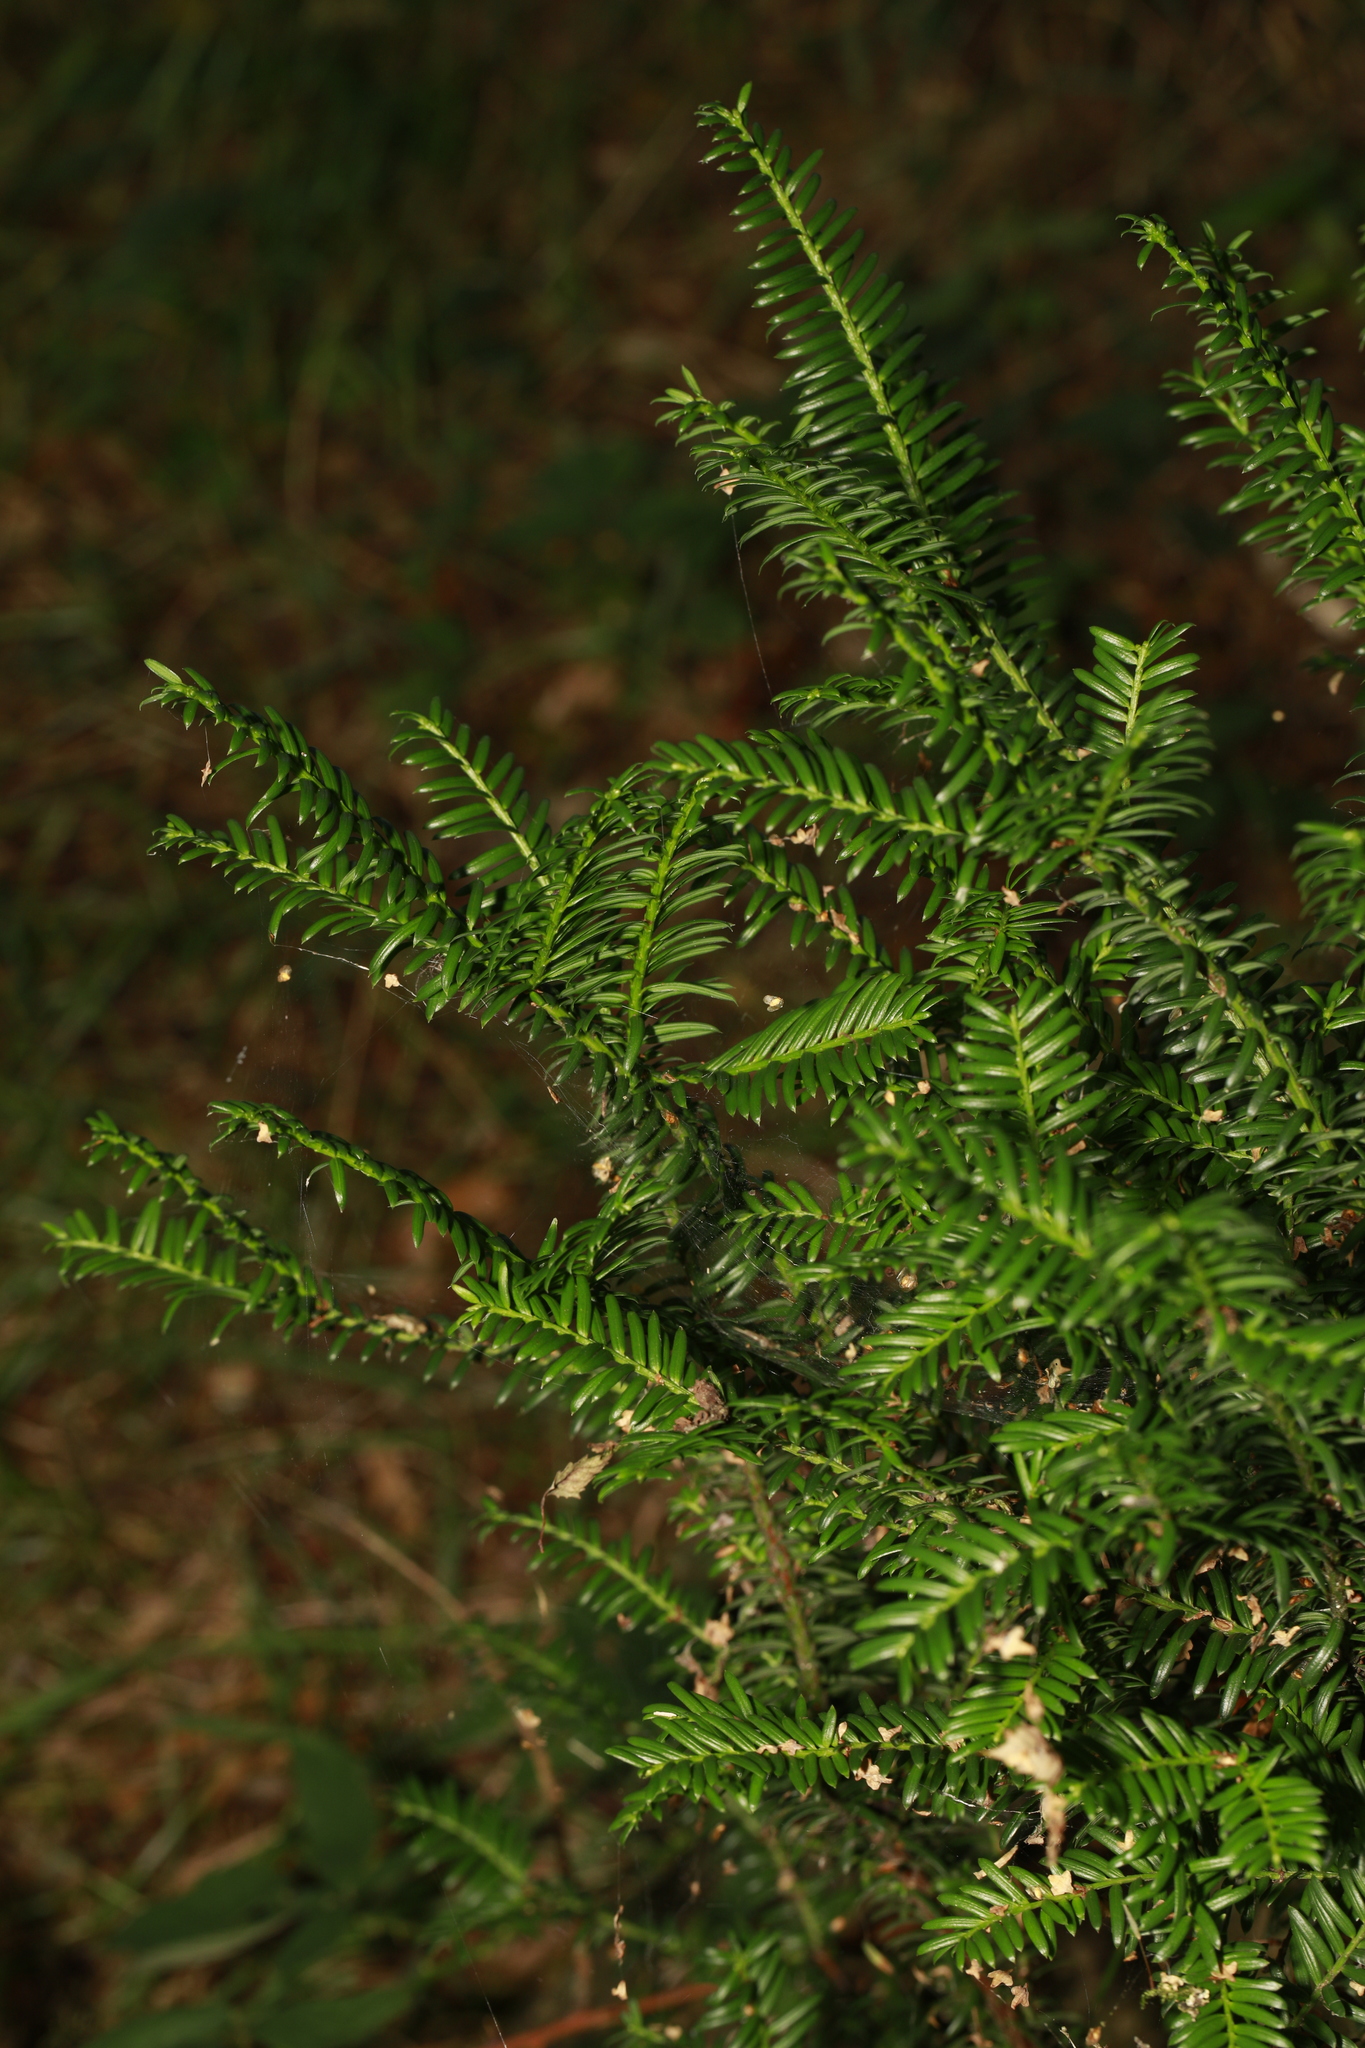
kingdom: Plantae
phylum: Tracheophyta
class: Pinopsida
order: Pinales
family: Taxaceae
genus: Taxus
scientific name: Taxus baccata
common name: Yew
